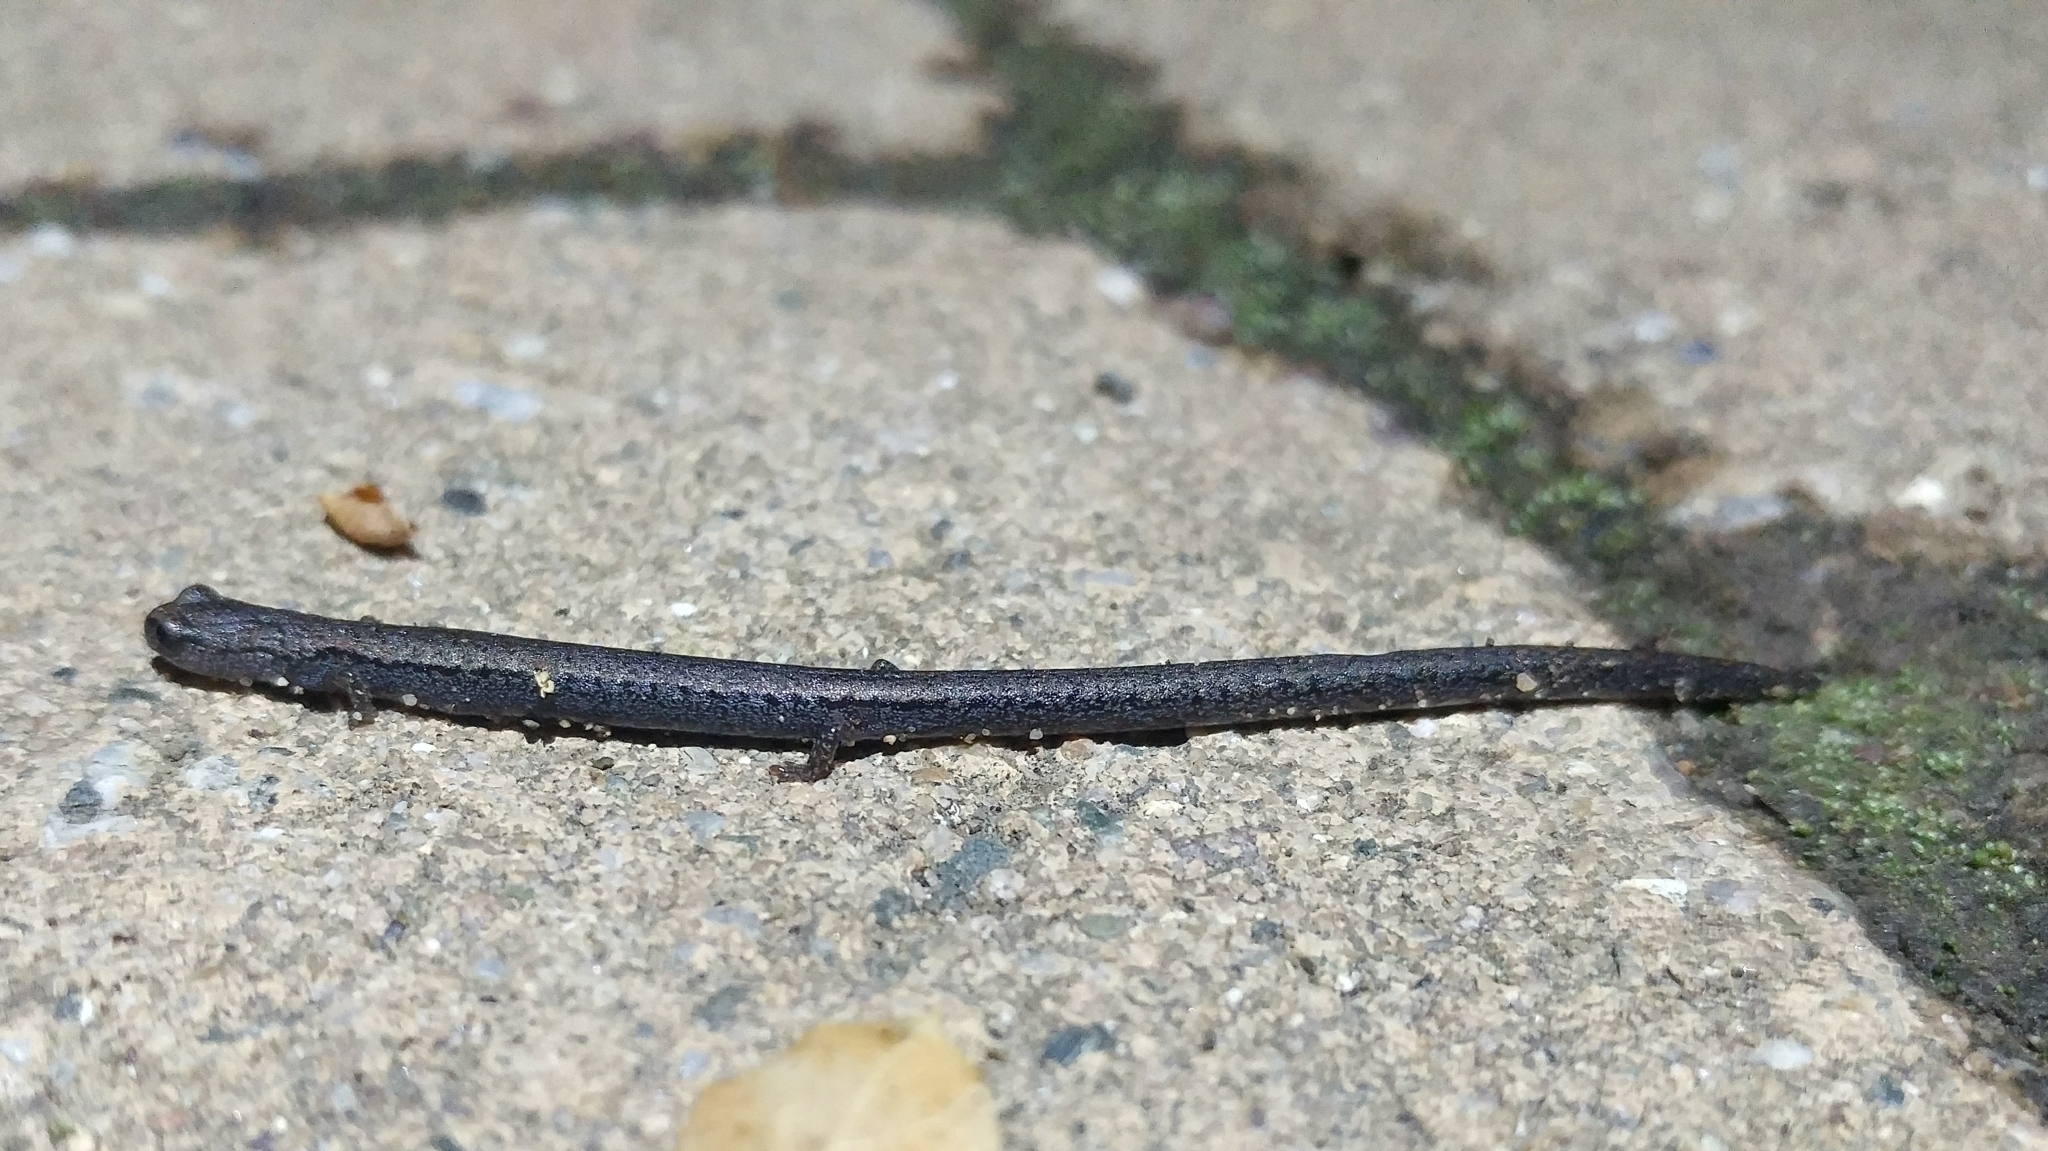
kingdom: Animalia
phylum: Chordata
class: Amphibia
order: Caudata
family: Plethodontidae
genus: Batrachoseps
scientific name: Batrachoseps nigriventris
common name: Black-bellied slender salamander
